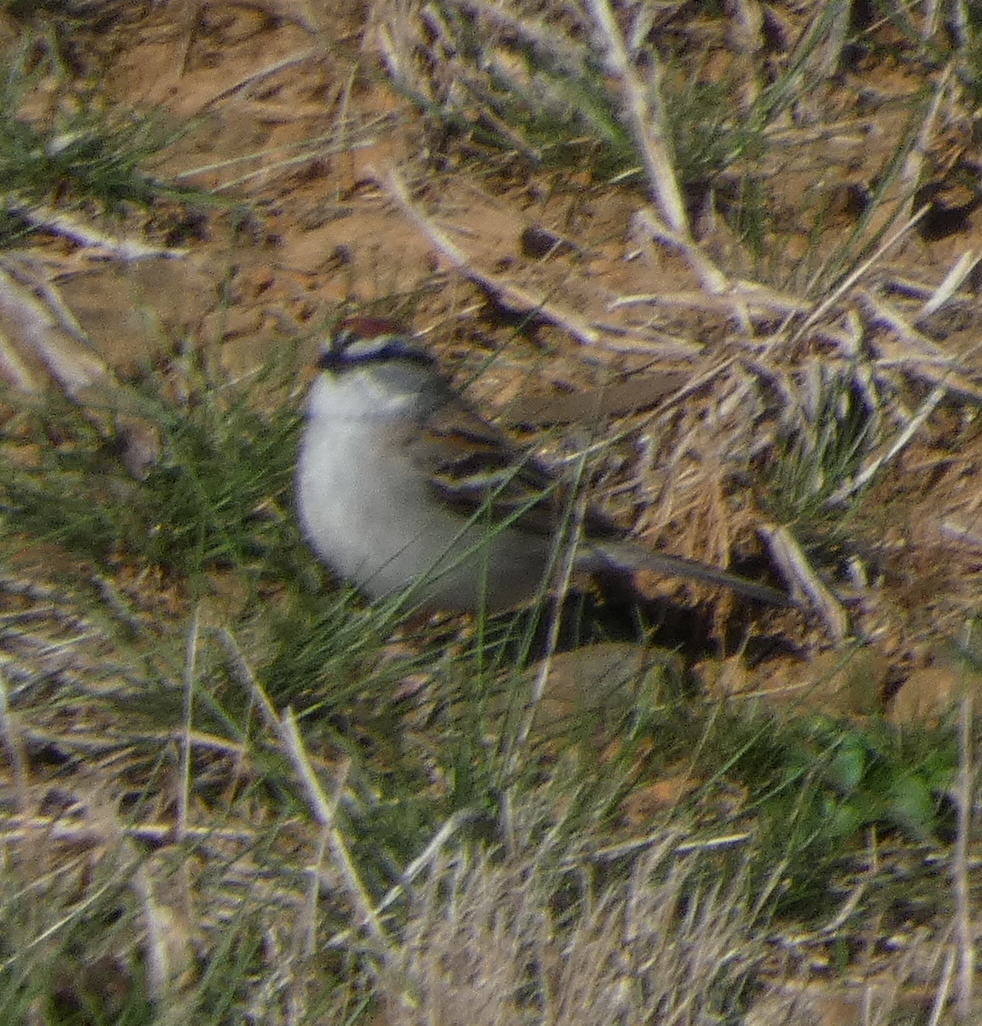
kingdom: Animalia
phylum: Chordata
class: Aves
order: Passeriformes
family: Passerellidae
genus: Spizella
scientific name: Spizella passerina
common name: Chipping sparrow
